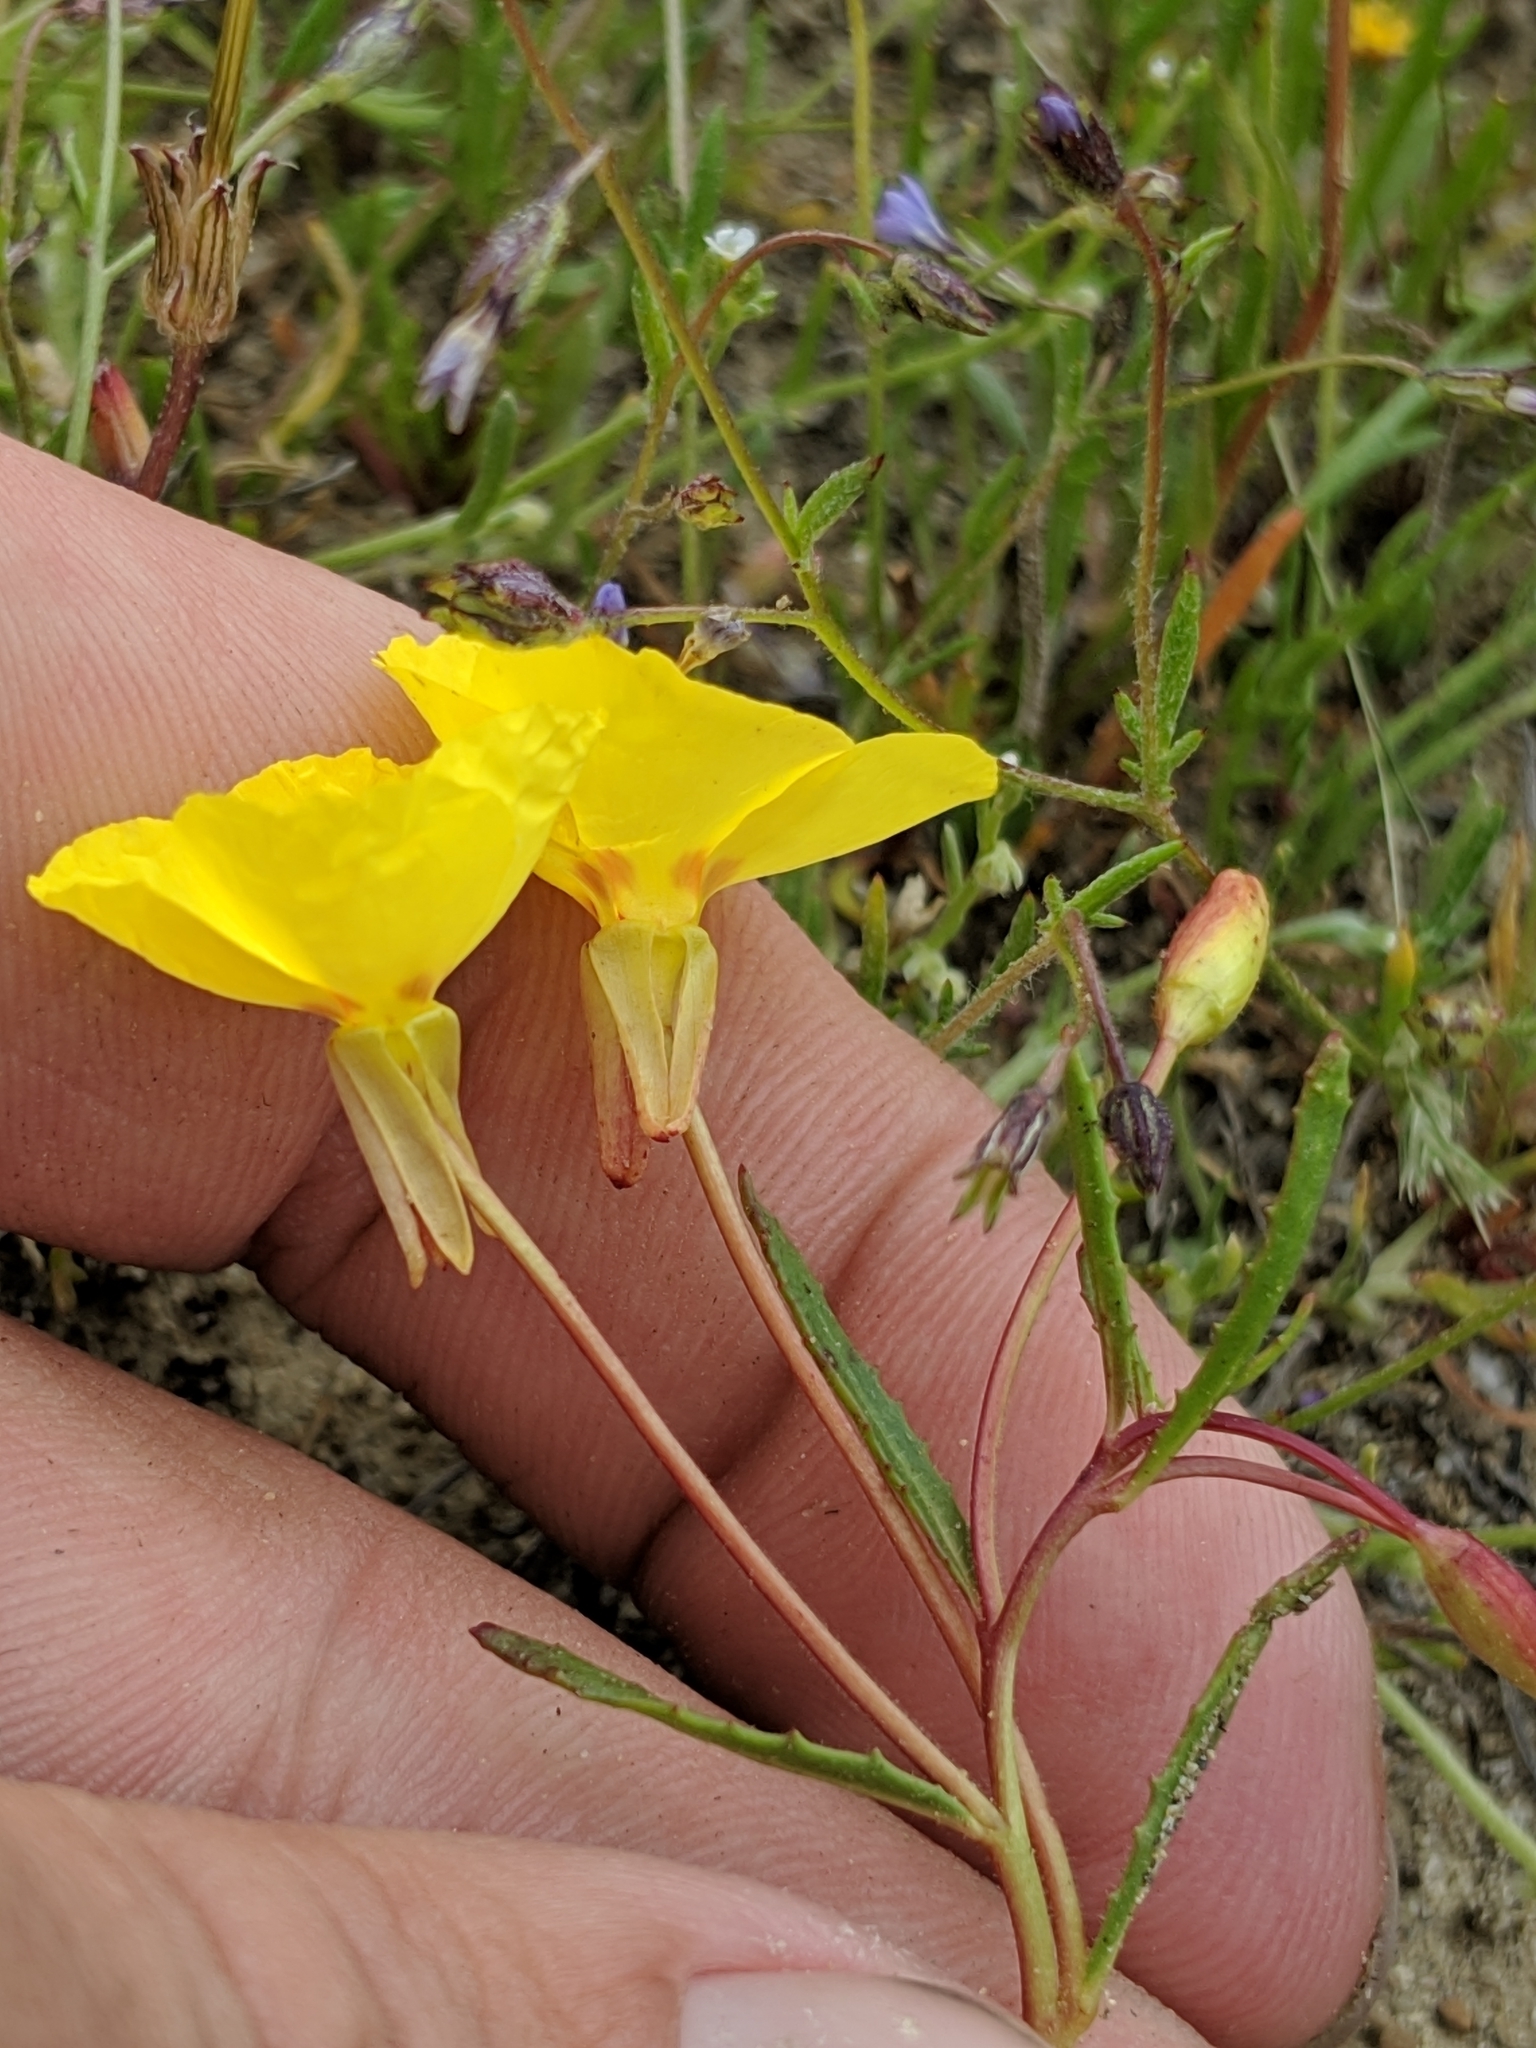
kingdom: Plantae
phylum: Tracheophyta
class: Magnoliopsida
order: Myrtales
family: Onagraceae
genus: Camissonia
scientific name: Camissonia campestris
